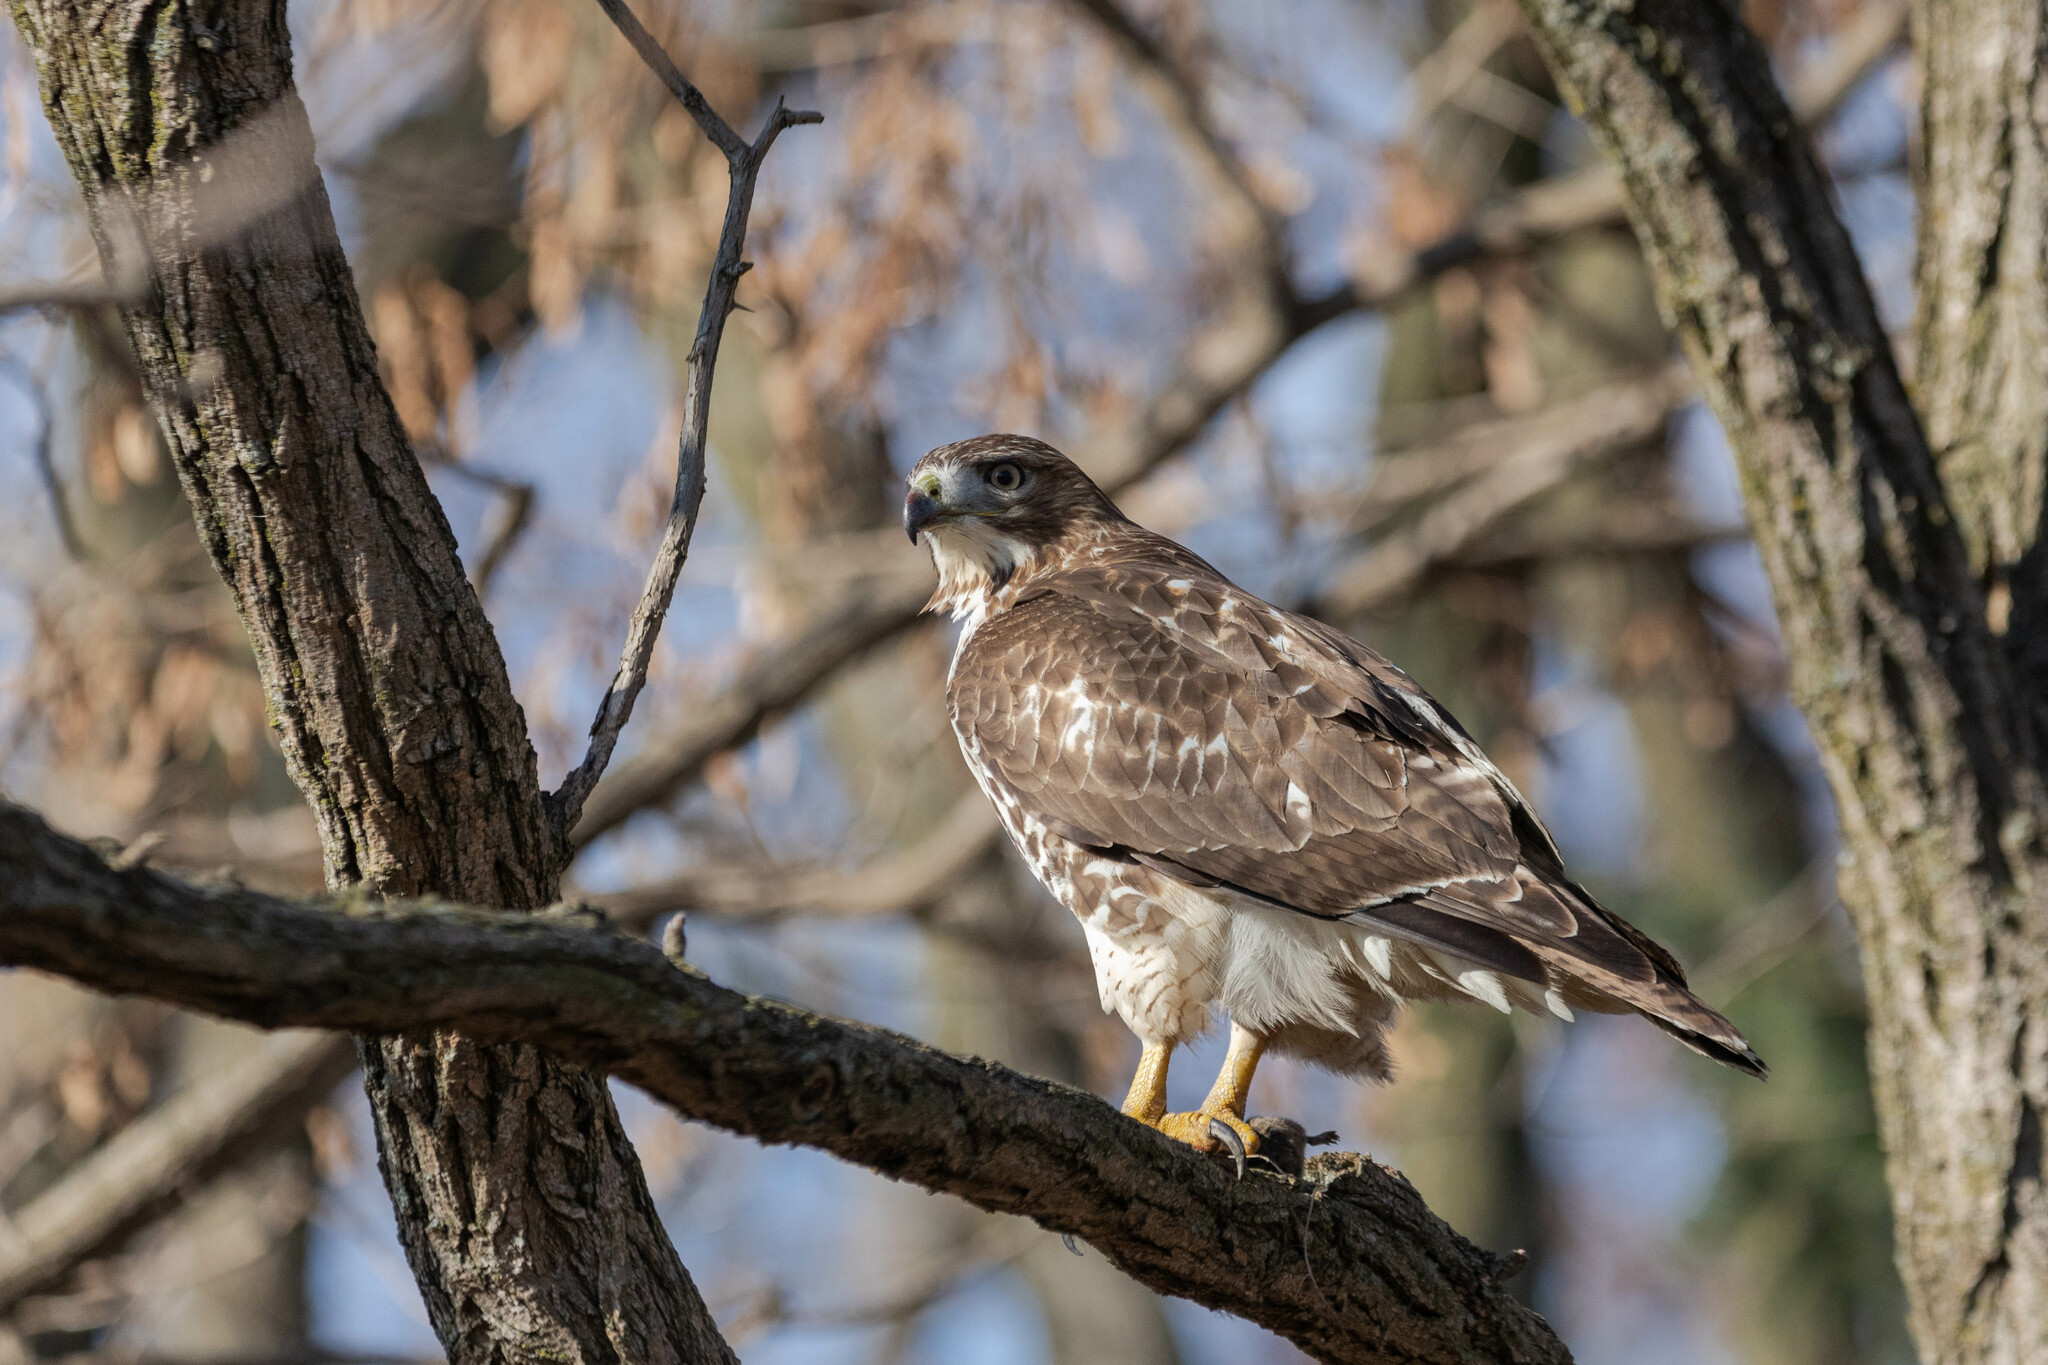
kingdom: Animalia
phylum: Chordata
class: Aves
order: Accipitriformes
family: Accipitridae
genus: Buteo
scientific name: Buteo jamaicensis
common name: Red-tailed hawk
